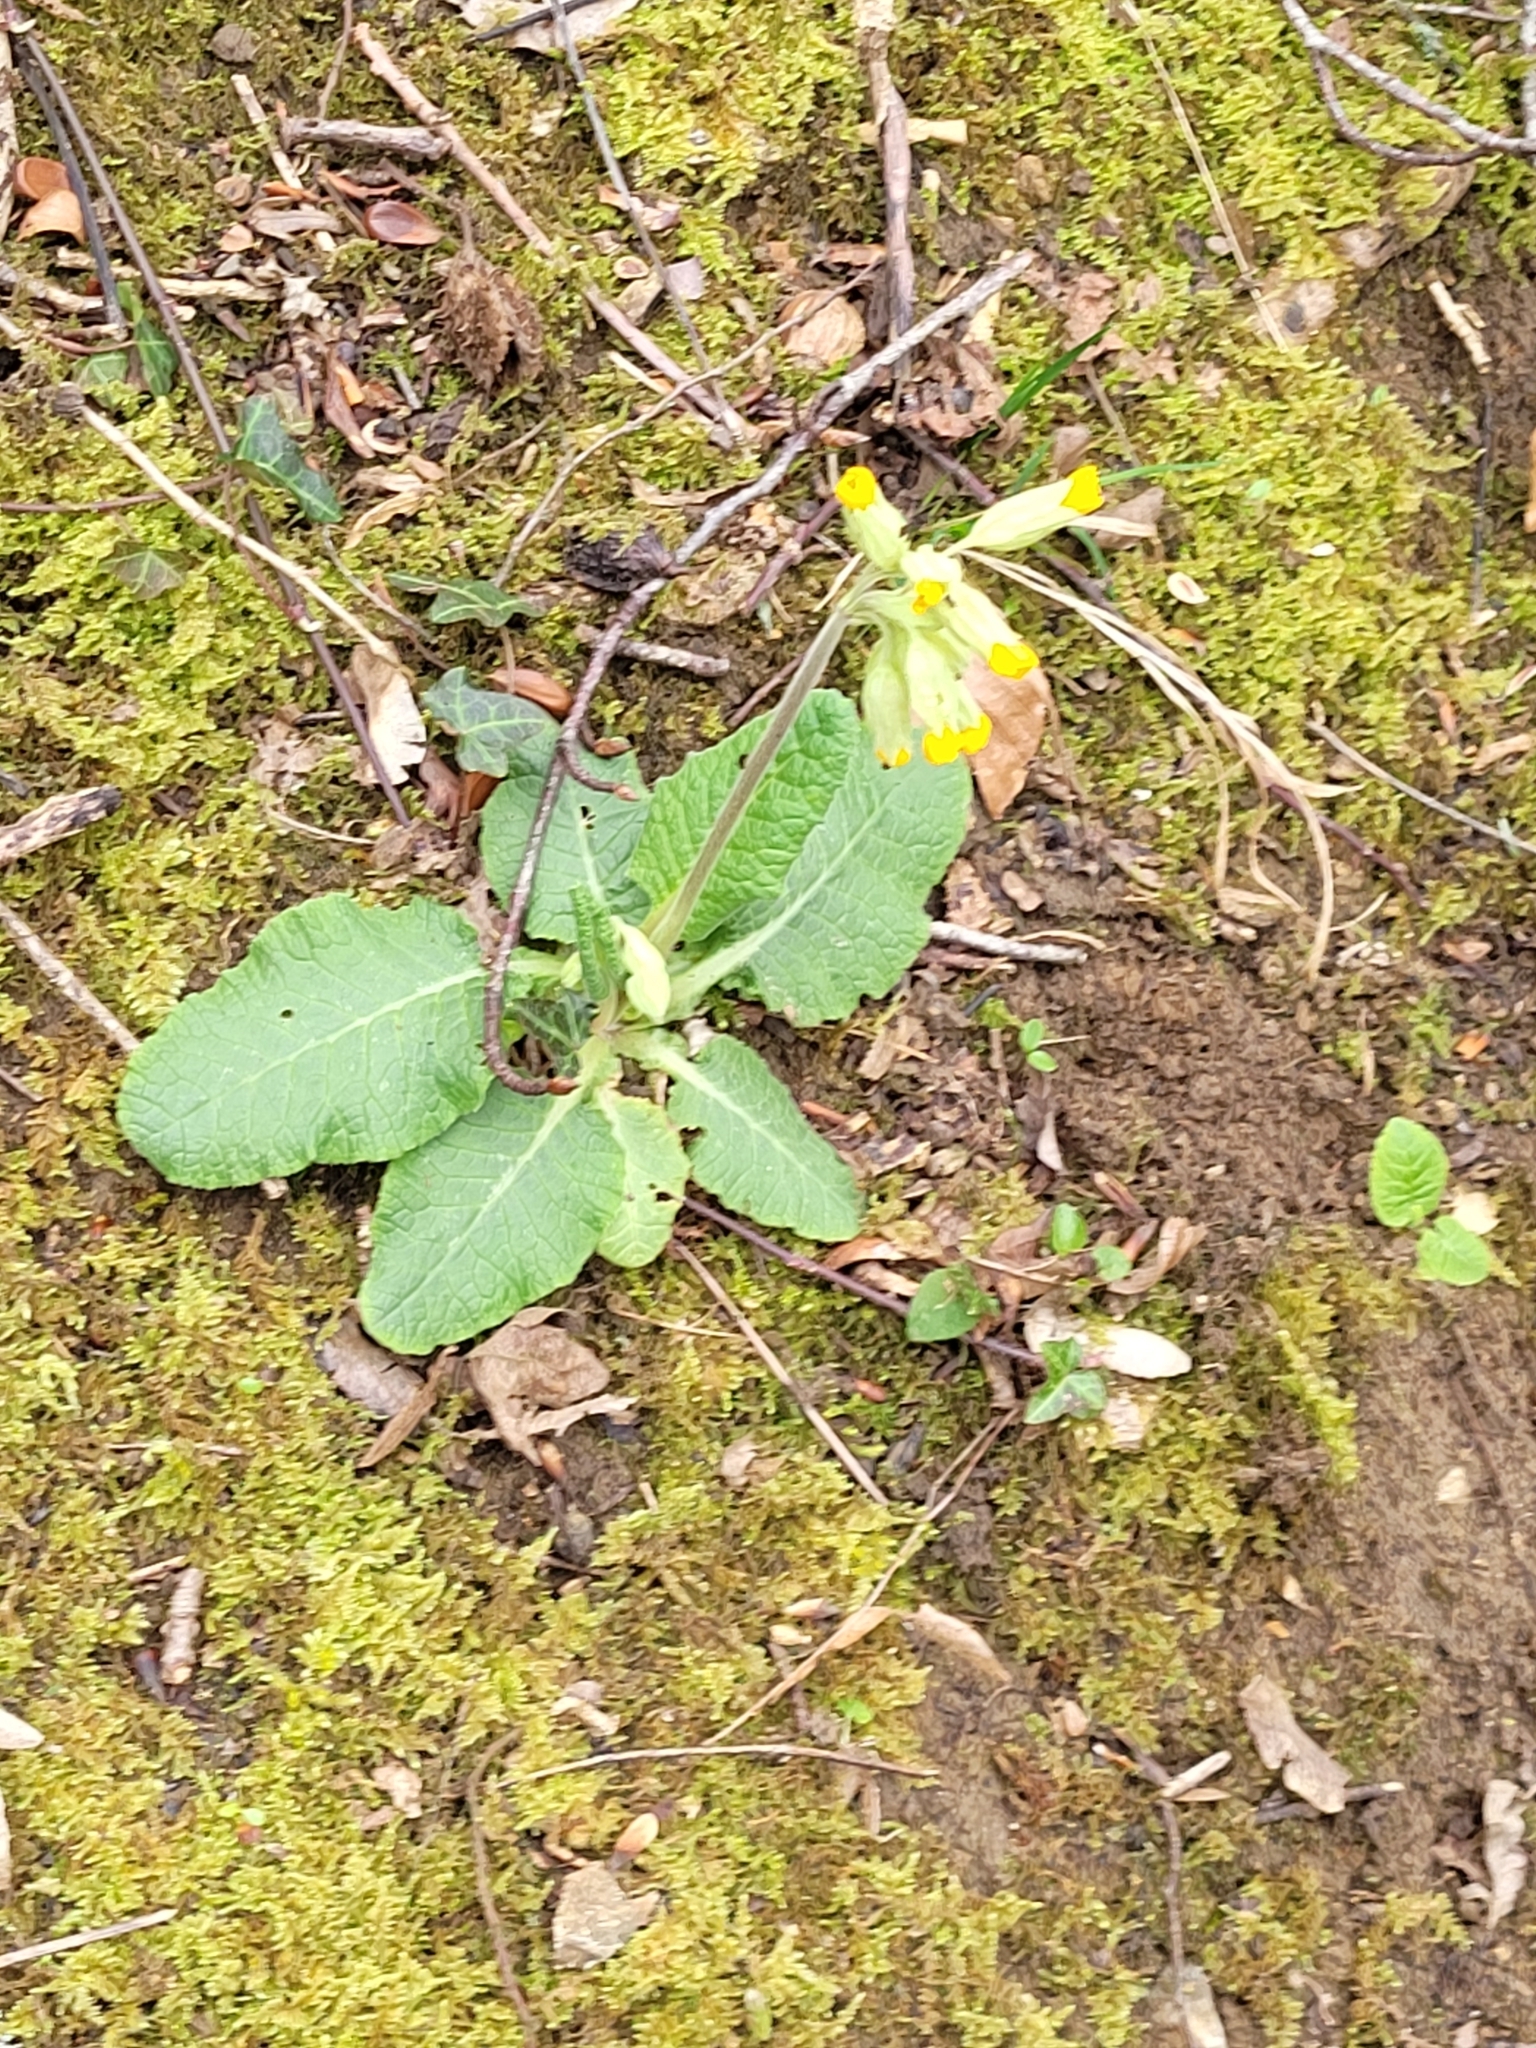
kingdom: Plantae
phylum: Tracheophyta
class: Magnoliopsida
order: Ericales
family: Primulaceae
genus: Primula
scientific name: Primula veris
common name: Cowslip
